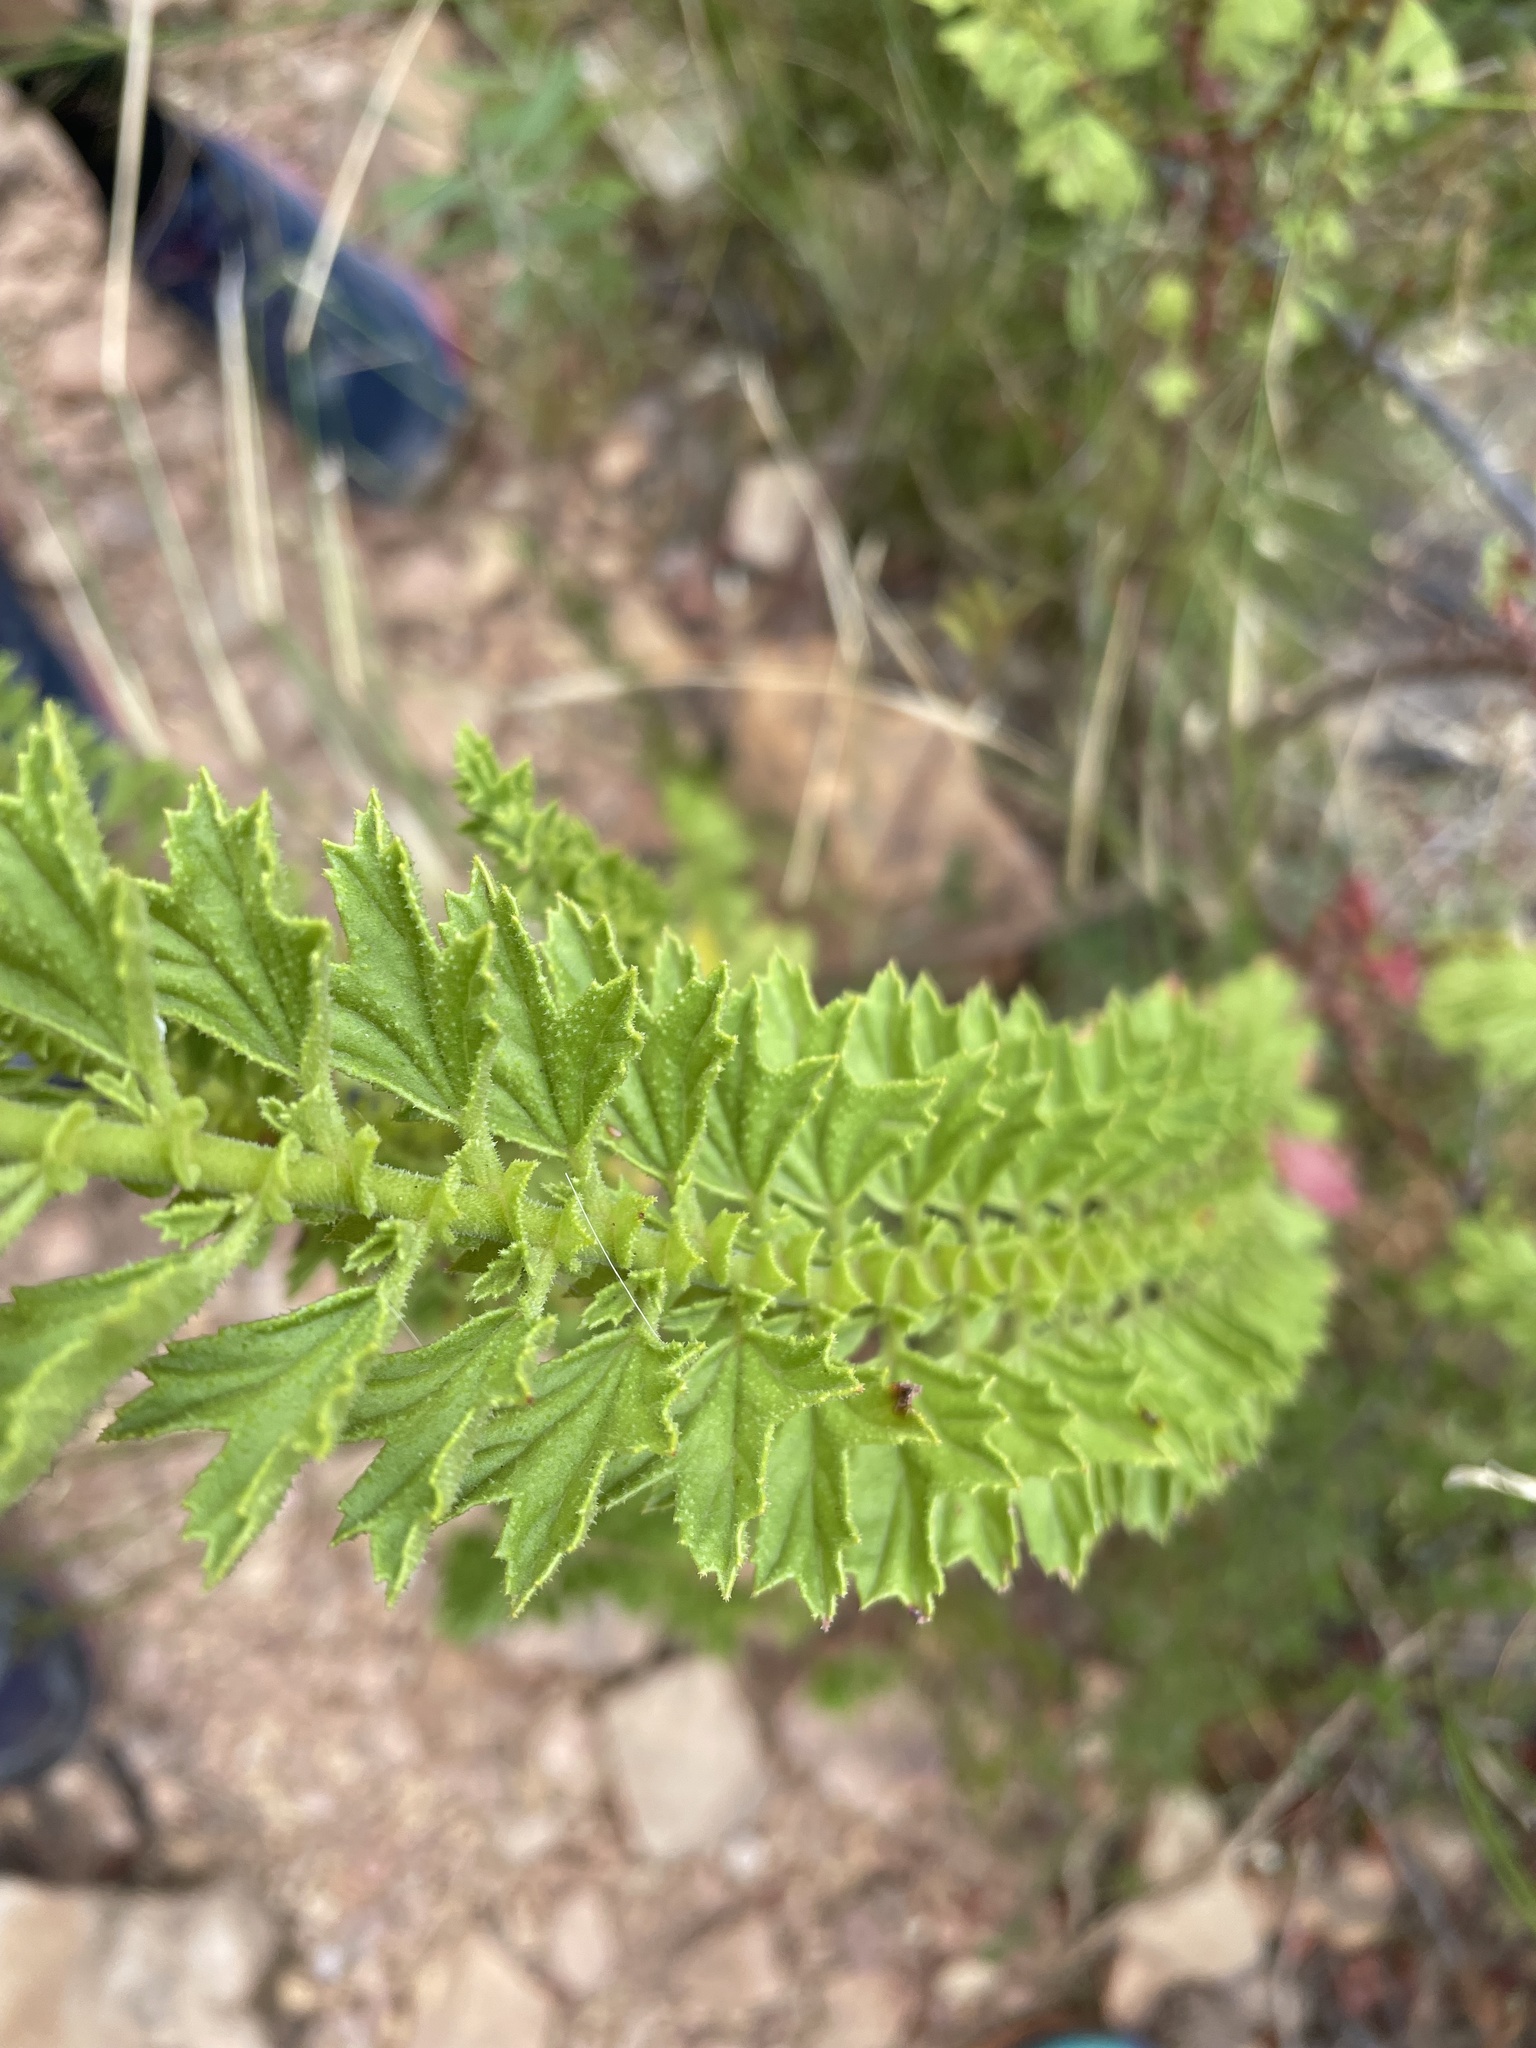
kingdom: Plantae
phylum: Tracheophyta
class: Magnoliopsida
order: Geraniales
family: Geraniaceae
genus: Pelargonium
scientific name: Pelargonium hermaniifolium
